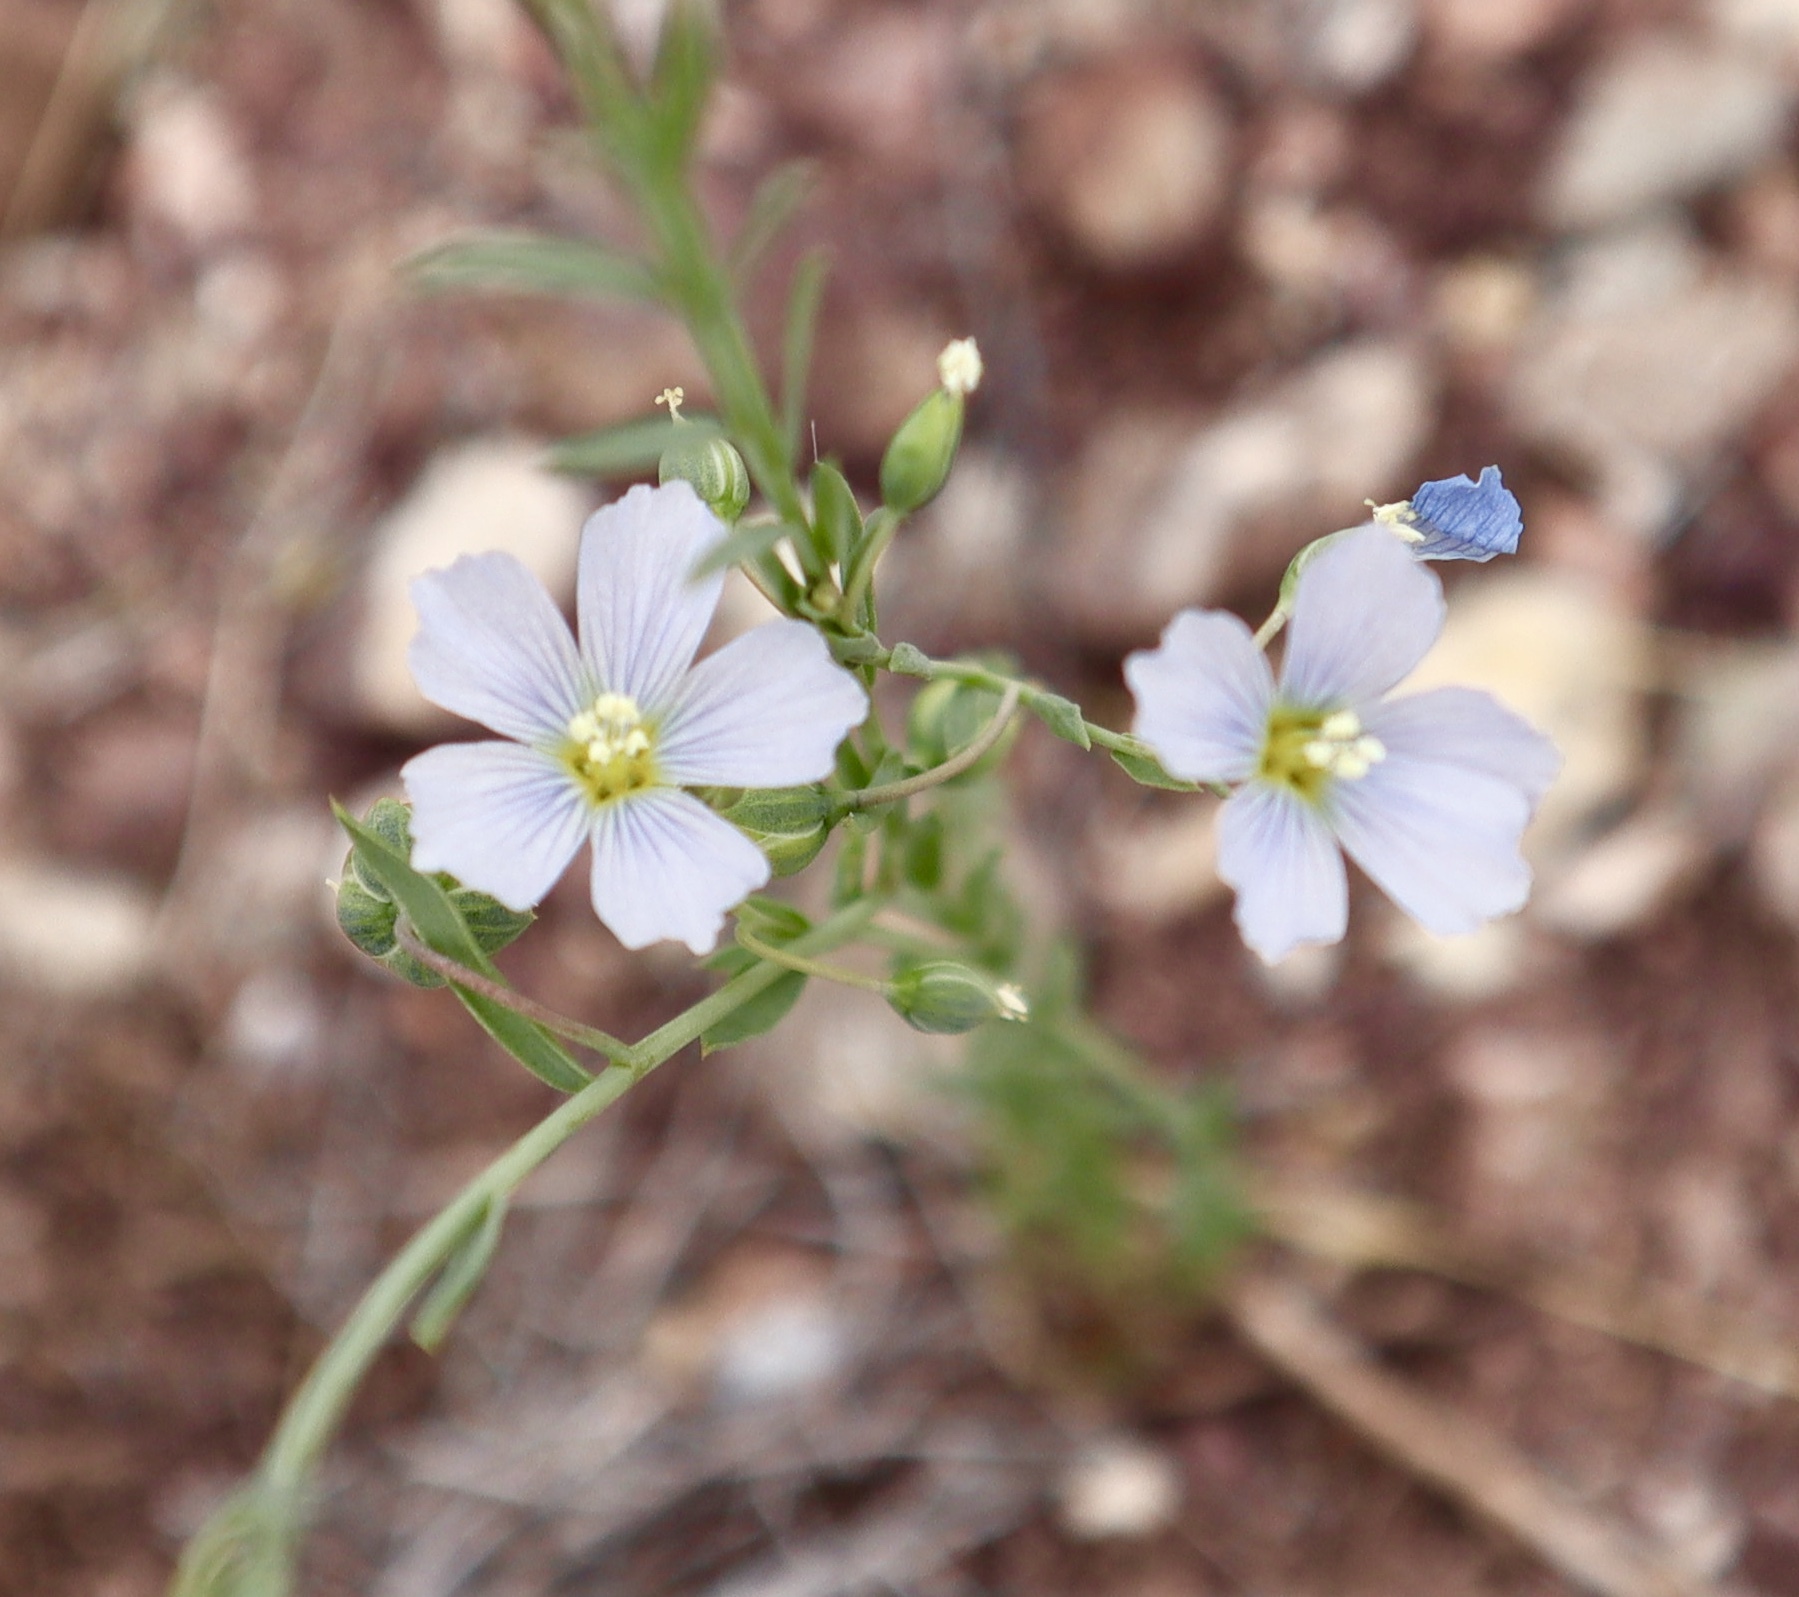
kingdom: Plantae
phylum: Tracheophyta
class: Magnoliopsida
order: Malpighiales
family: Linaceae
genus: Linum
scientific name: Linum lewisii
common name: Prairie flax
